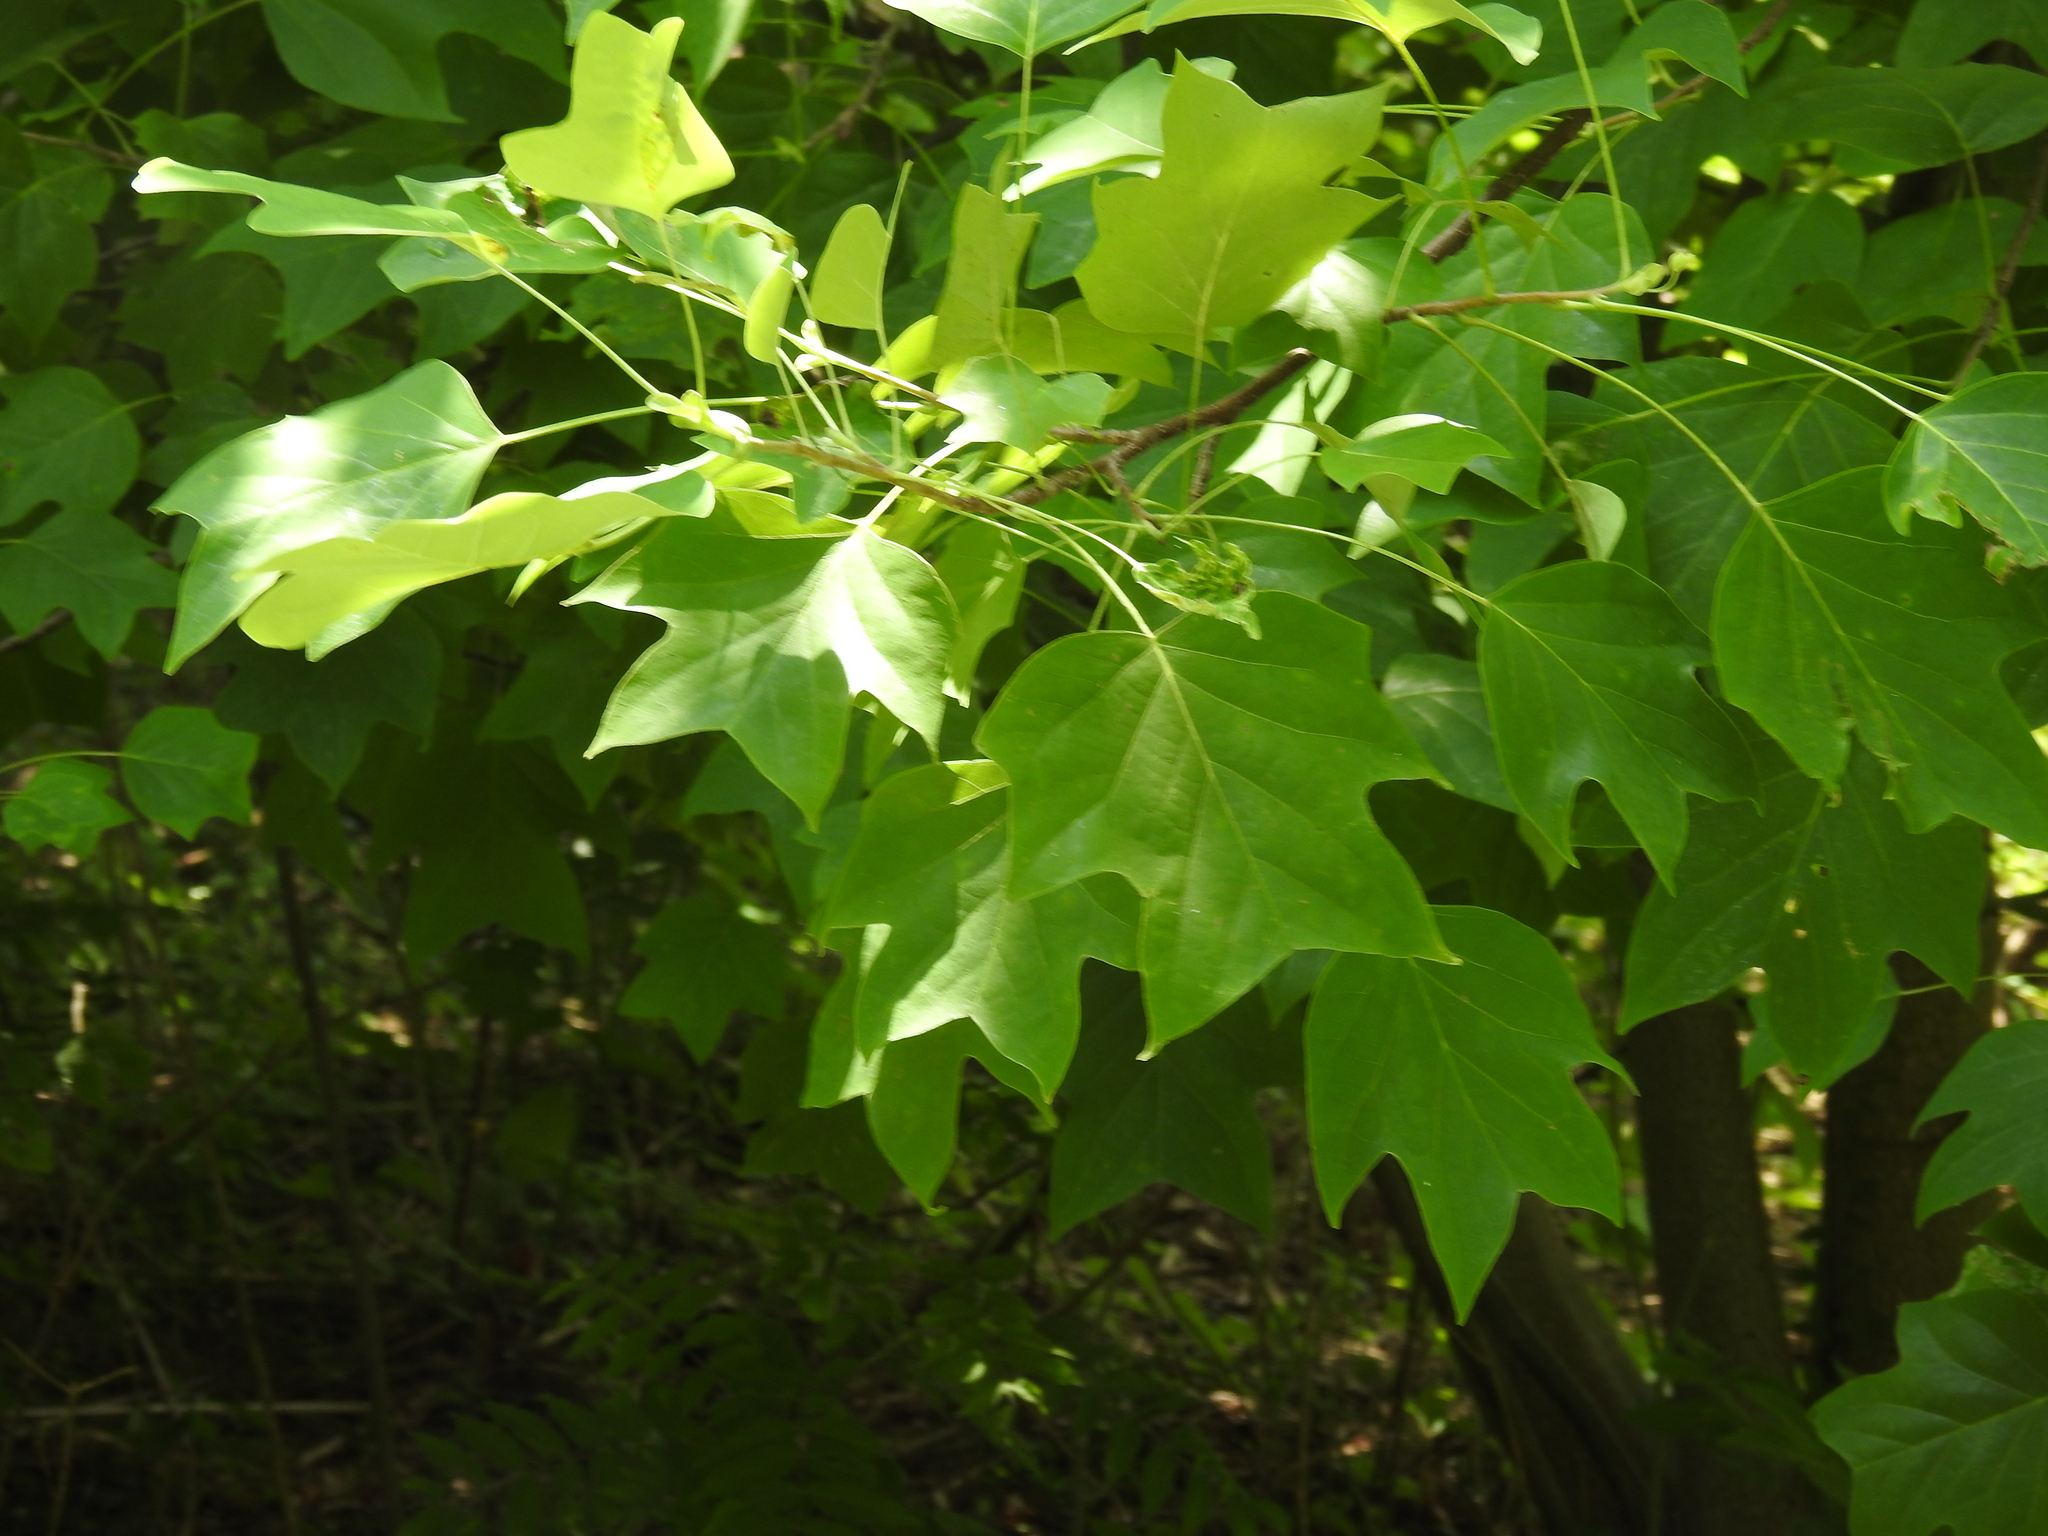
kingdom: Plantae
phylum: Tracheophyta
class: Magnoliopsida
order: Magnoliales
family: Magnoliaceae
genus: Liriodendron
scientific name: Liriodendron tulipifera
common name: Tulip tree
